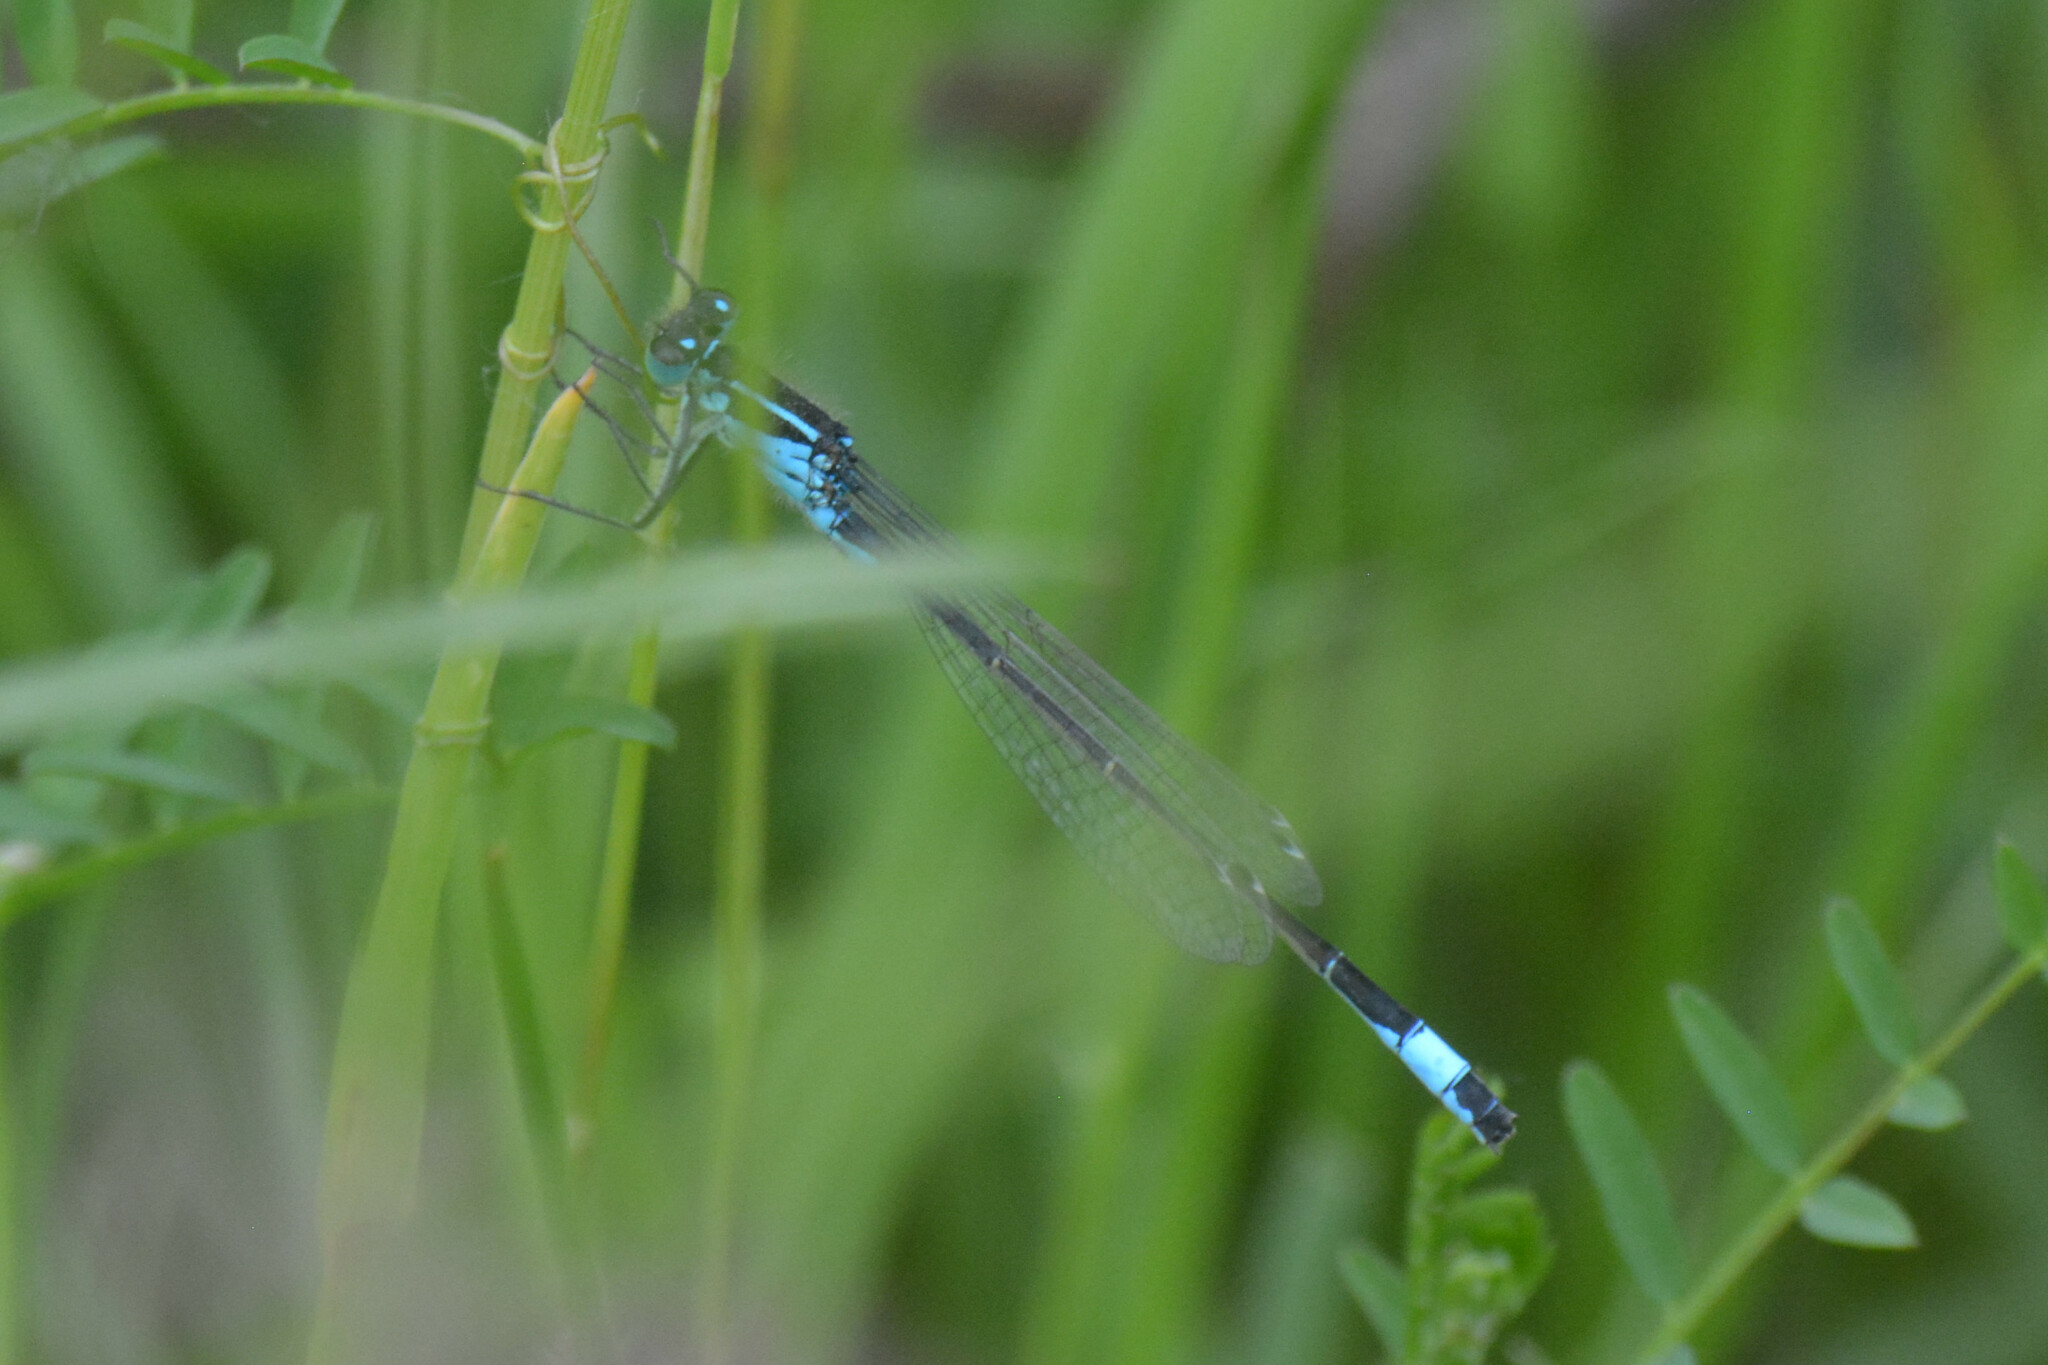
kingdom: Animalia
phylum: Arthropoda
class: Insecta
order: Odonata
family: Coenagrionidae
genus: Ischnura
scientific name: Ischnura elegans
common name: Blue-tailed damselfly
